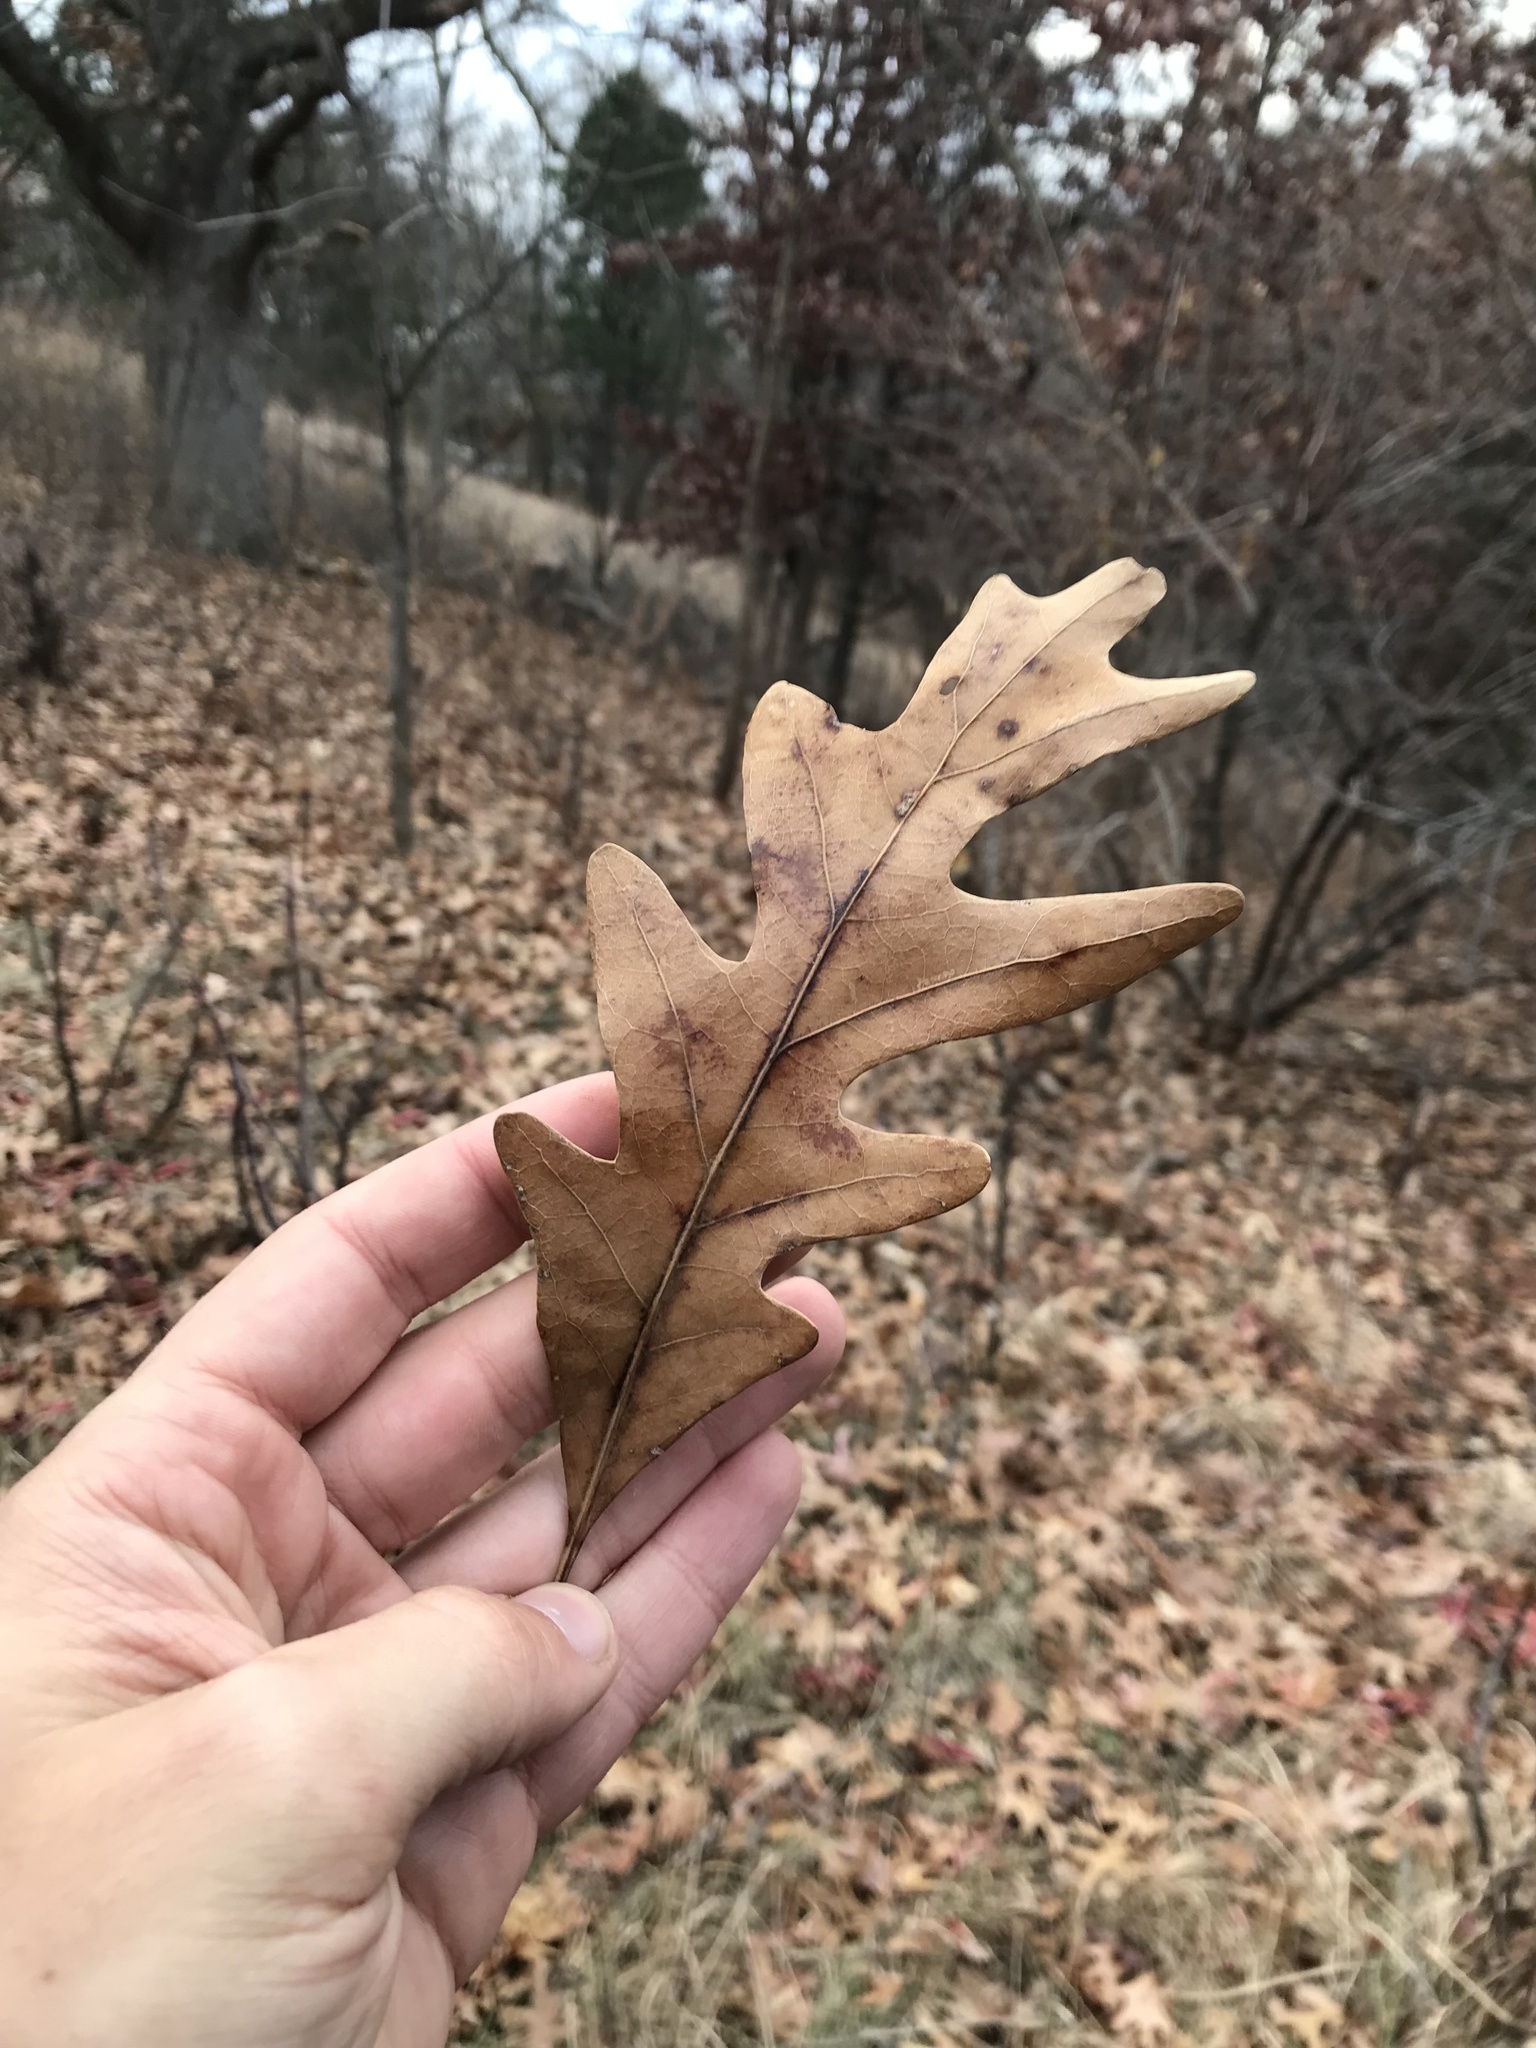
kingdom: Plantae
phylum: Tracheophyta
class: Magnoliopsida
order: Fagales
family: Fagaceae
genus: Quercus
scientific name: Quercus alba
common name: White oak
